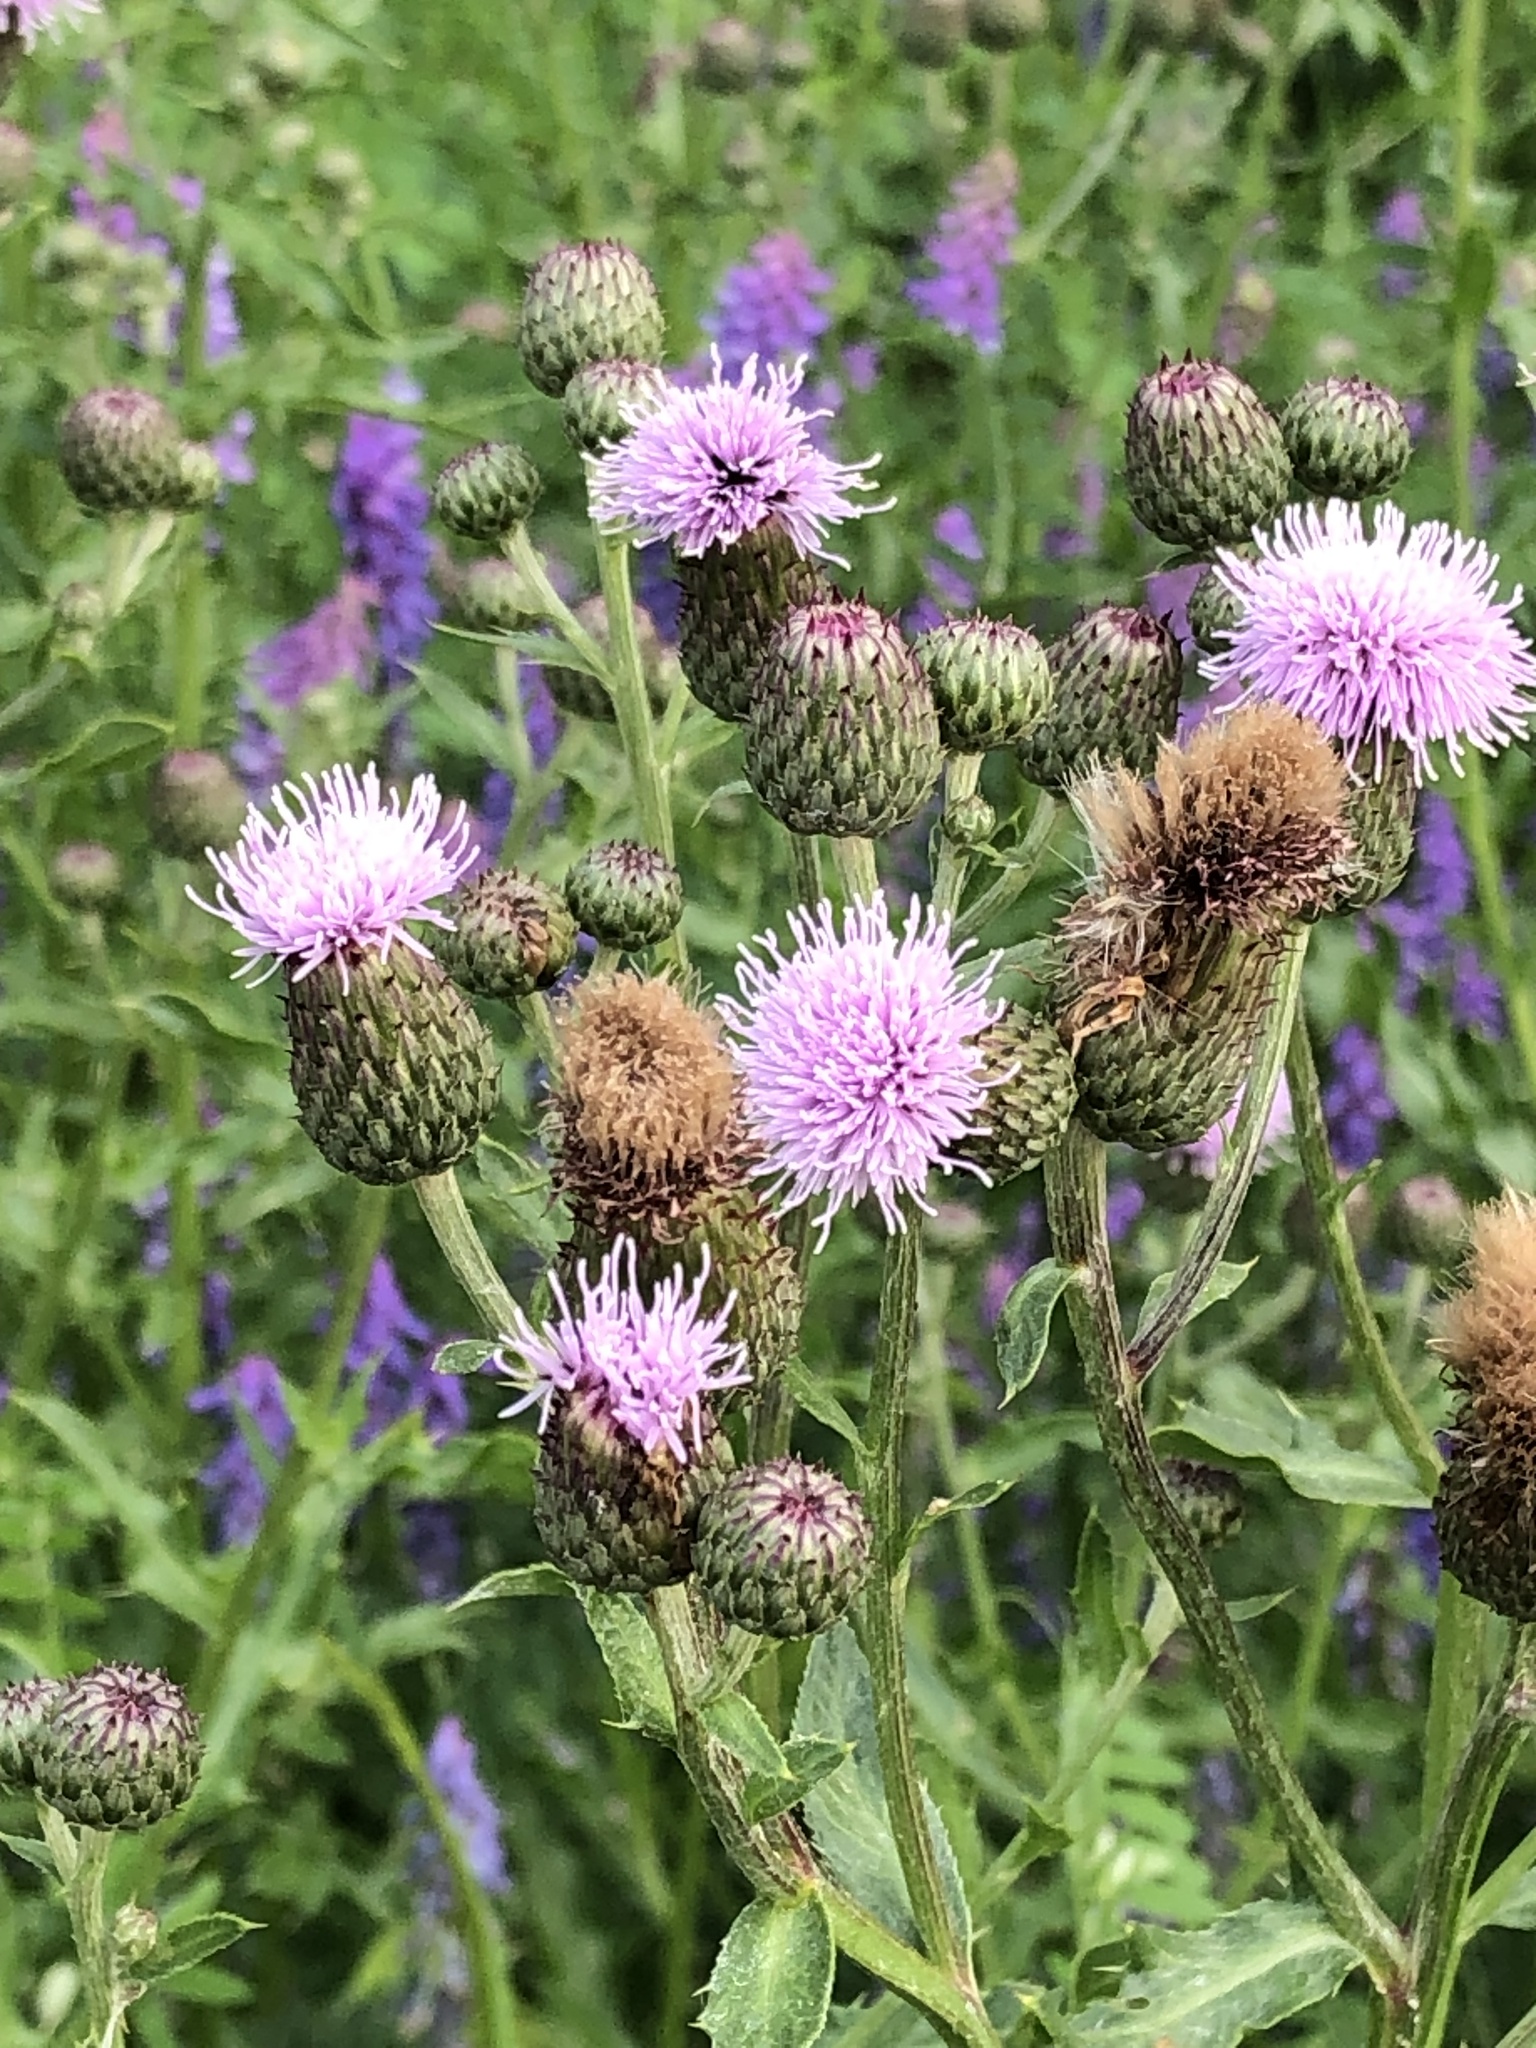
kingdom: Plantae
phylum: Tracheophyta
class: Magnoliopsida
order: Asterales
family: Asteraceae
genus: Cirsium
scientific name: Cirsium arvense
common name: Creeping thistle
